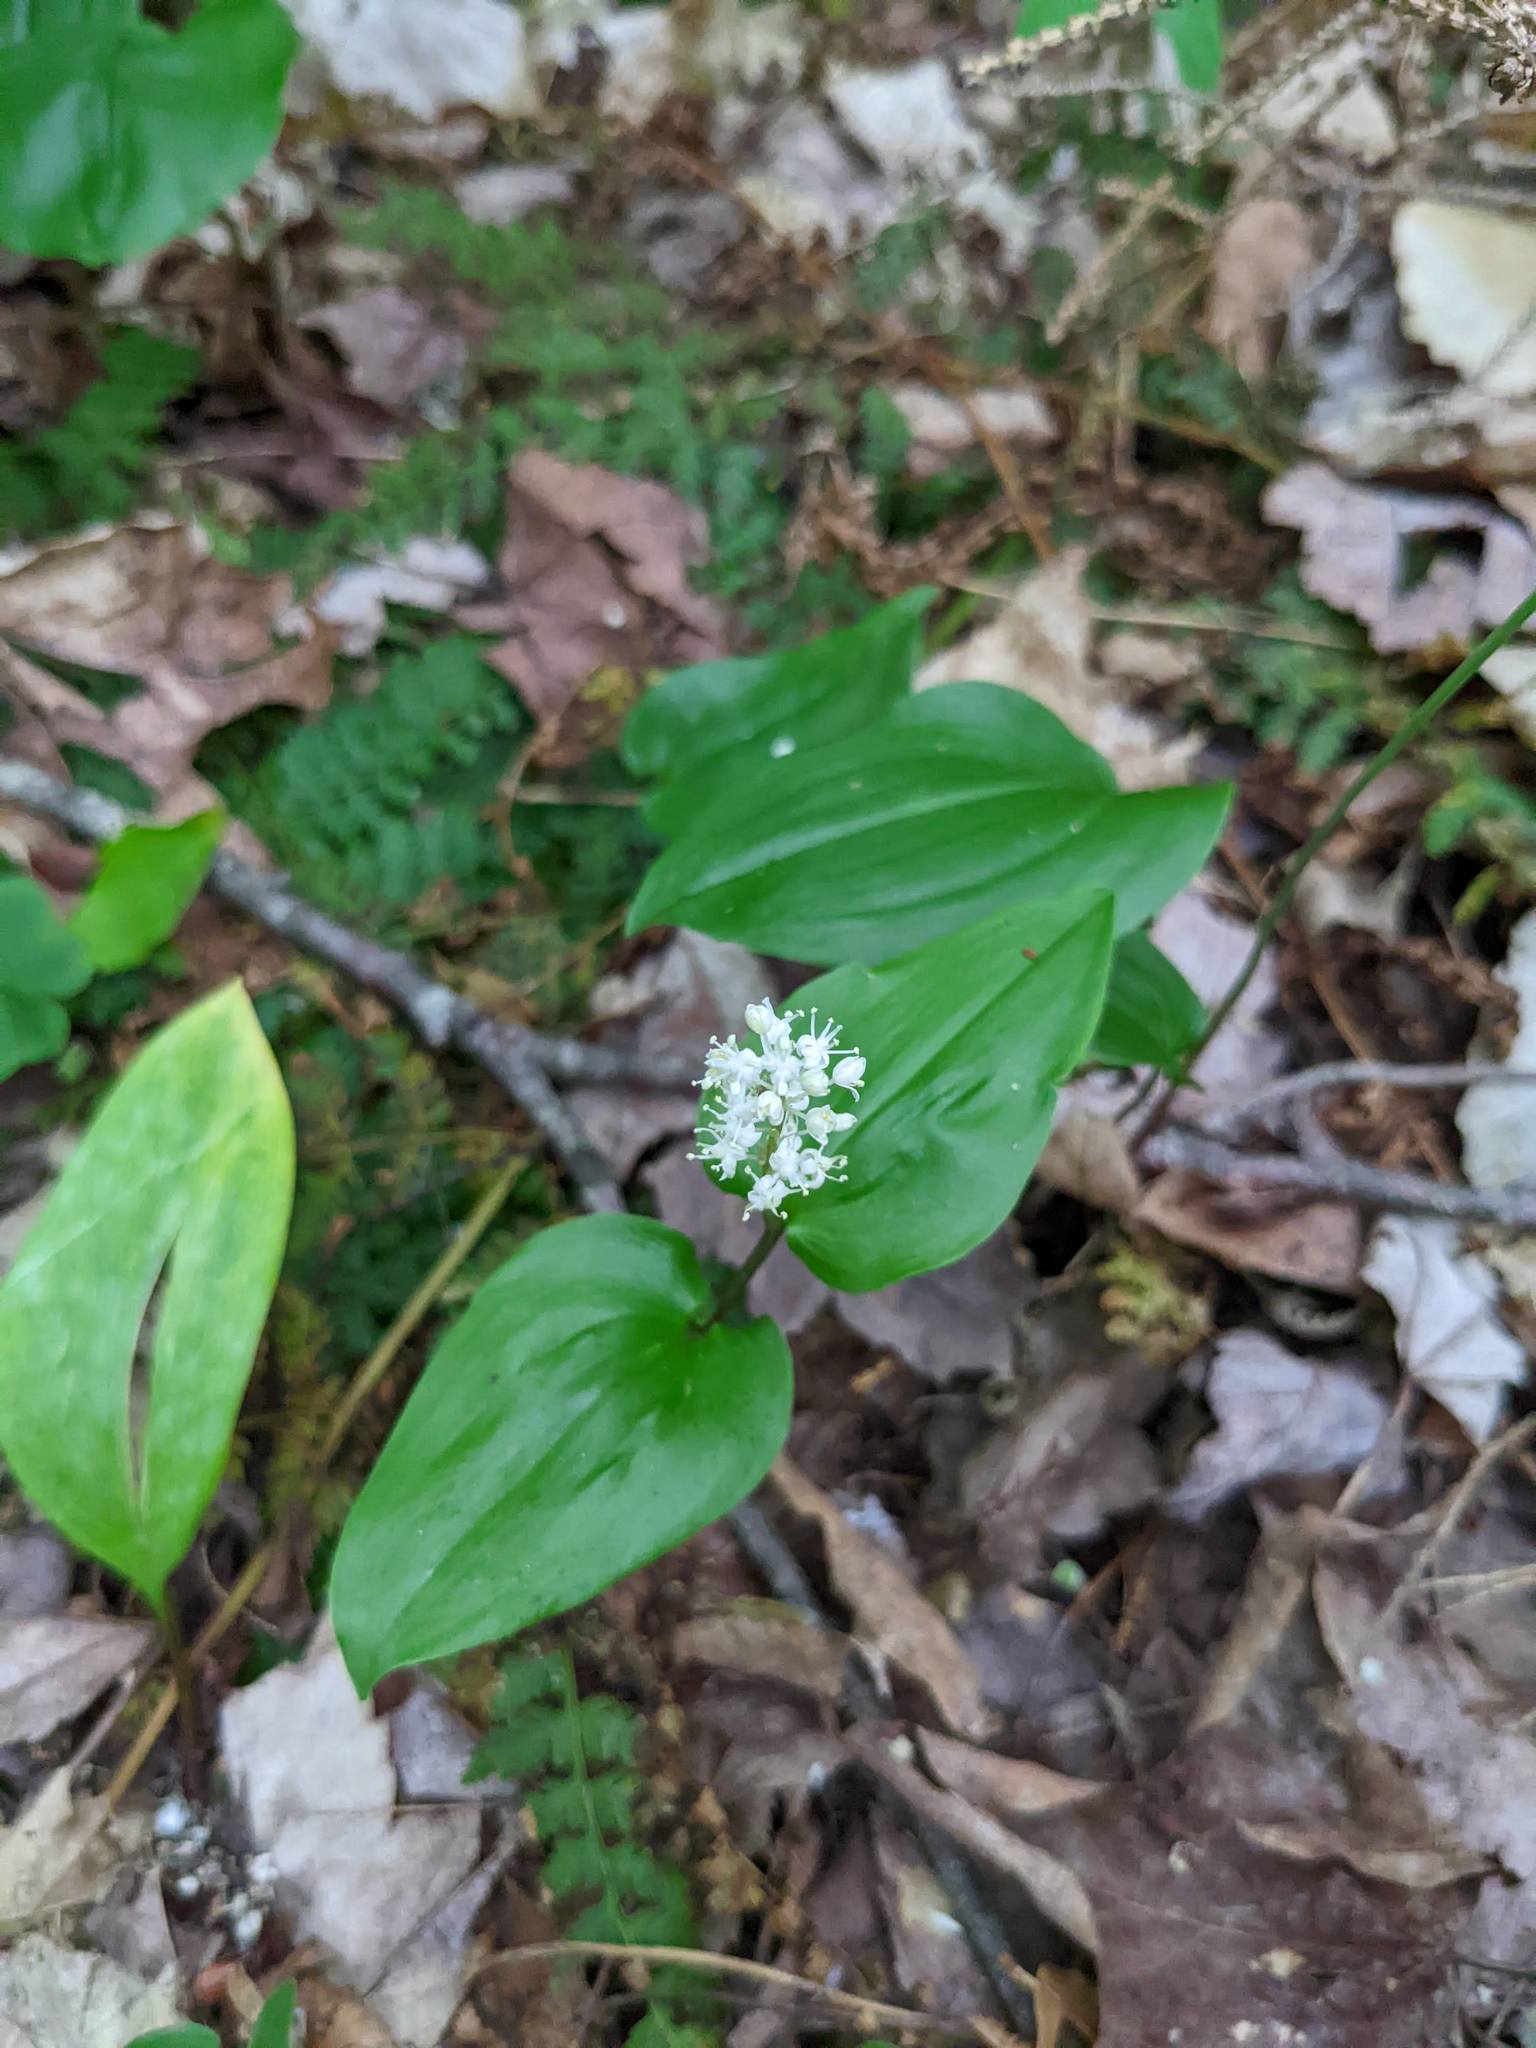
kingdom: Plantae
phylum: Tracheophyta
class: Liliopsida
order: Asparagales
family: Asparagaceae
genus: Maianthemum
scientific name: Maianthemum canadense
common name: False lily-of-the-valley
